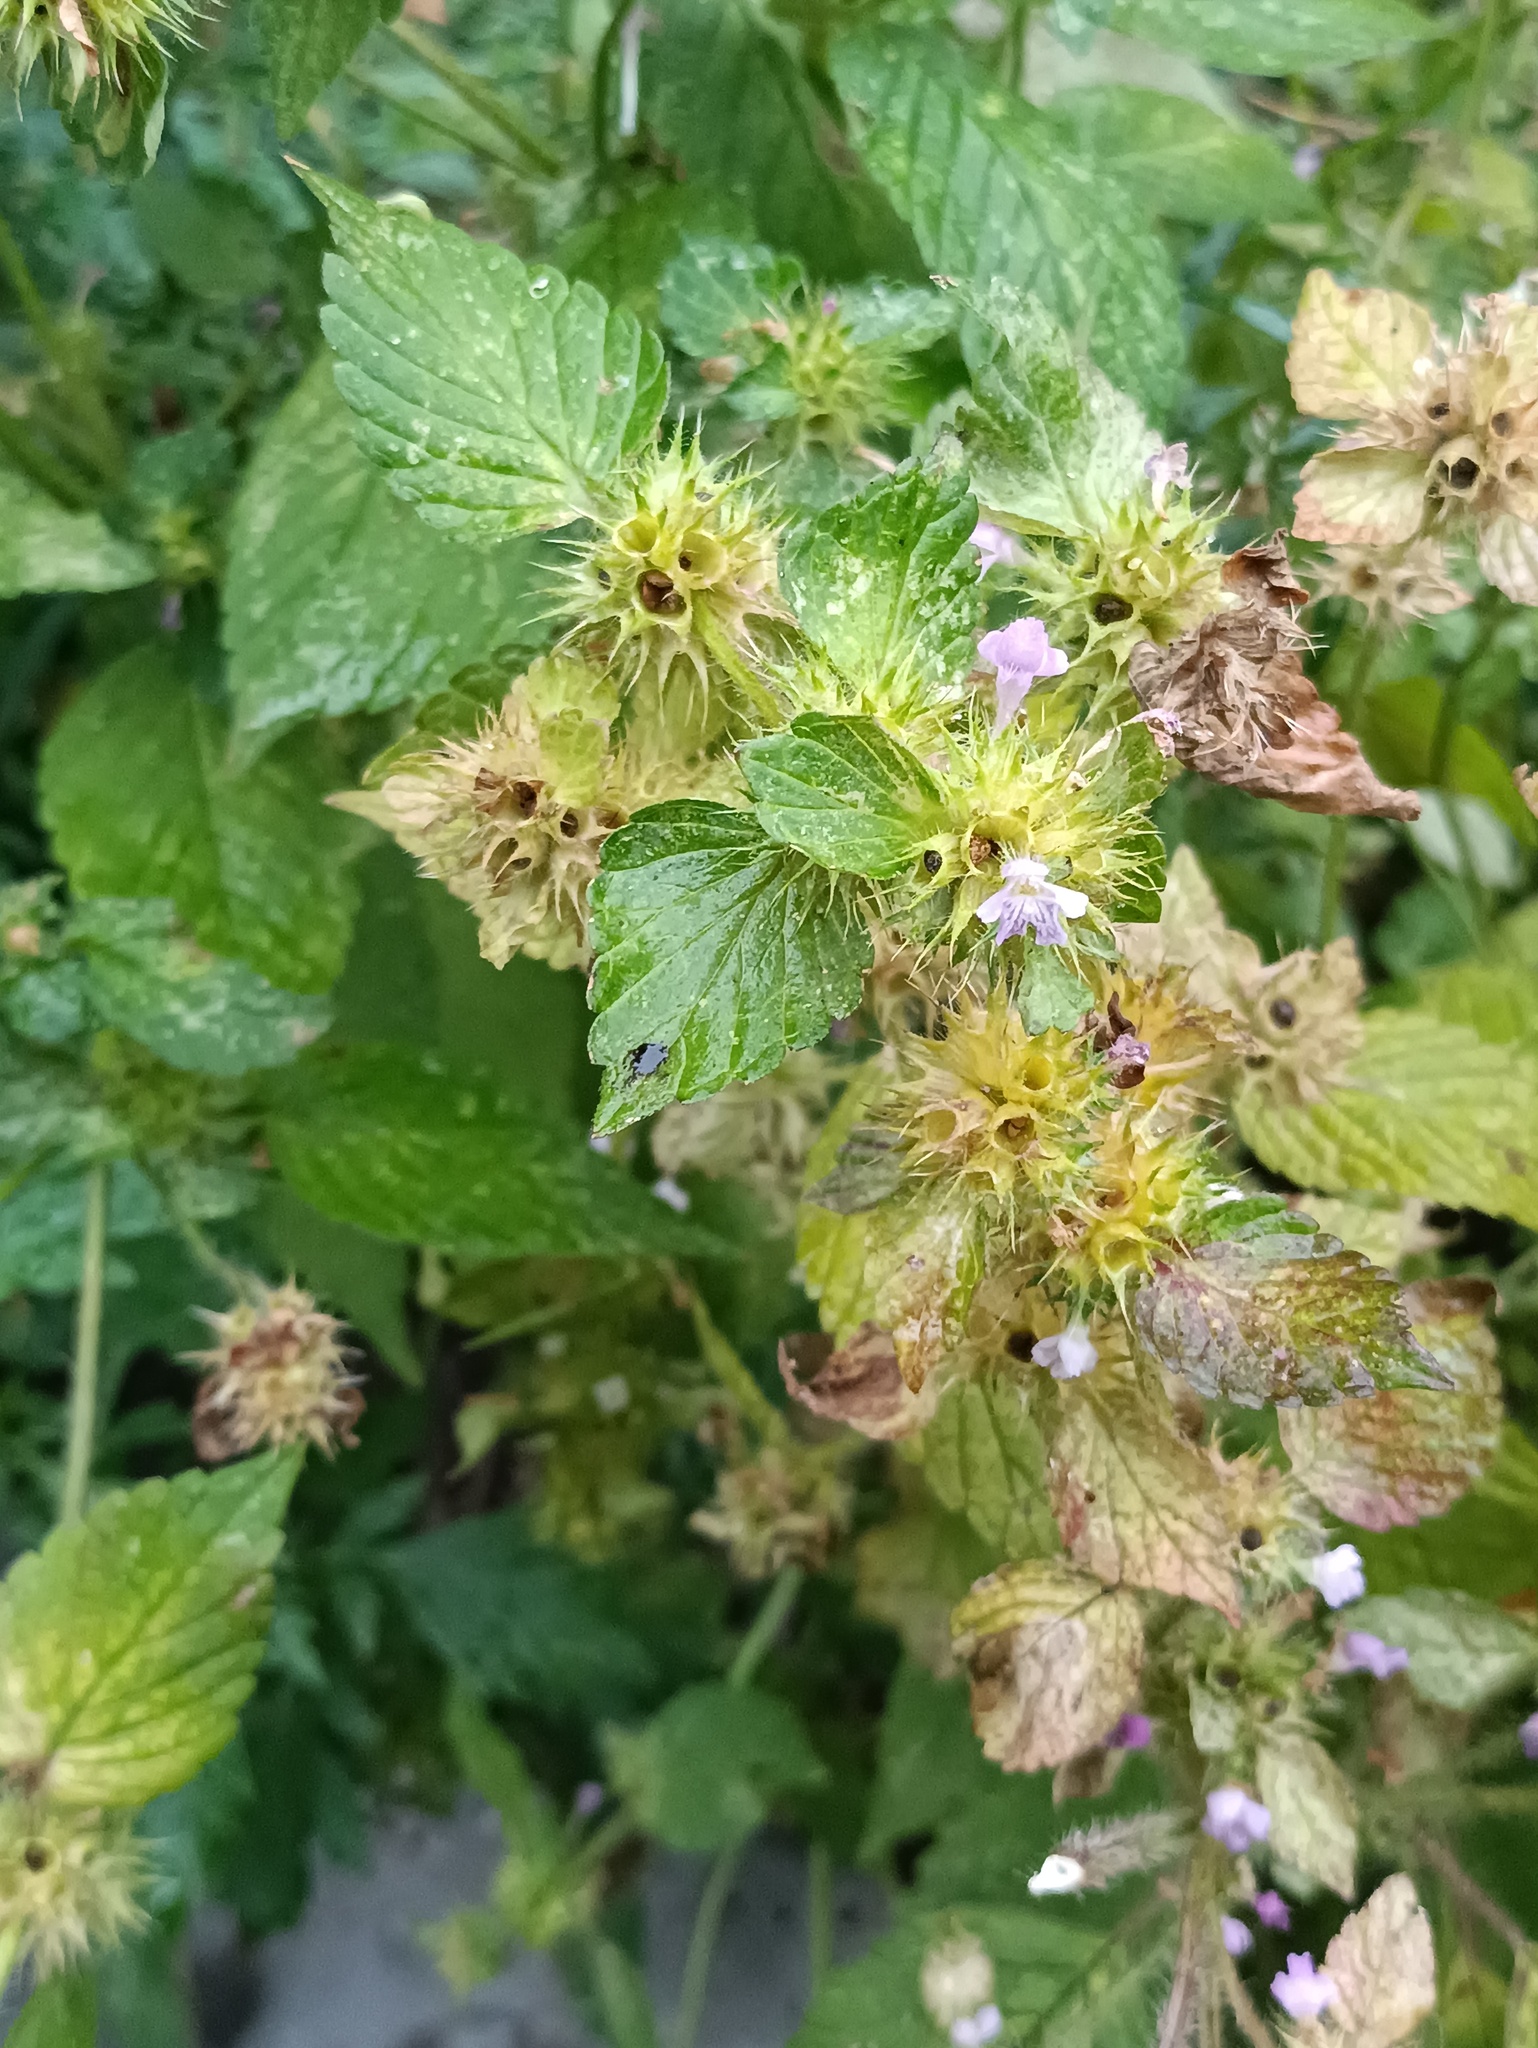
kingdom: Plantae
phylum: Tracheophyta
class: Magnoliopsida
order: Lamiales
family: Lamiaceae
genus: Galeopsis
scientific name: Galeopsis bifida
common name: Bifid hemp-nettle
